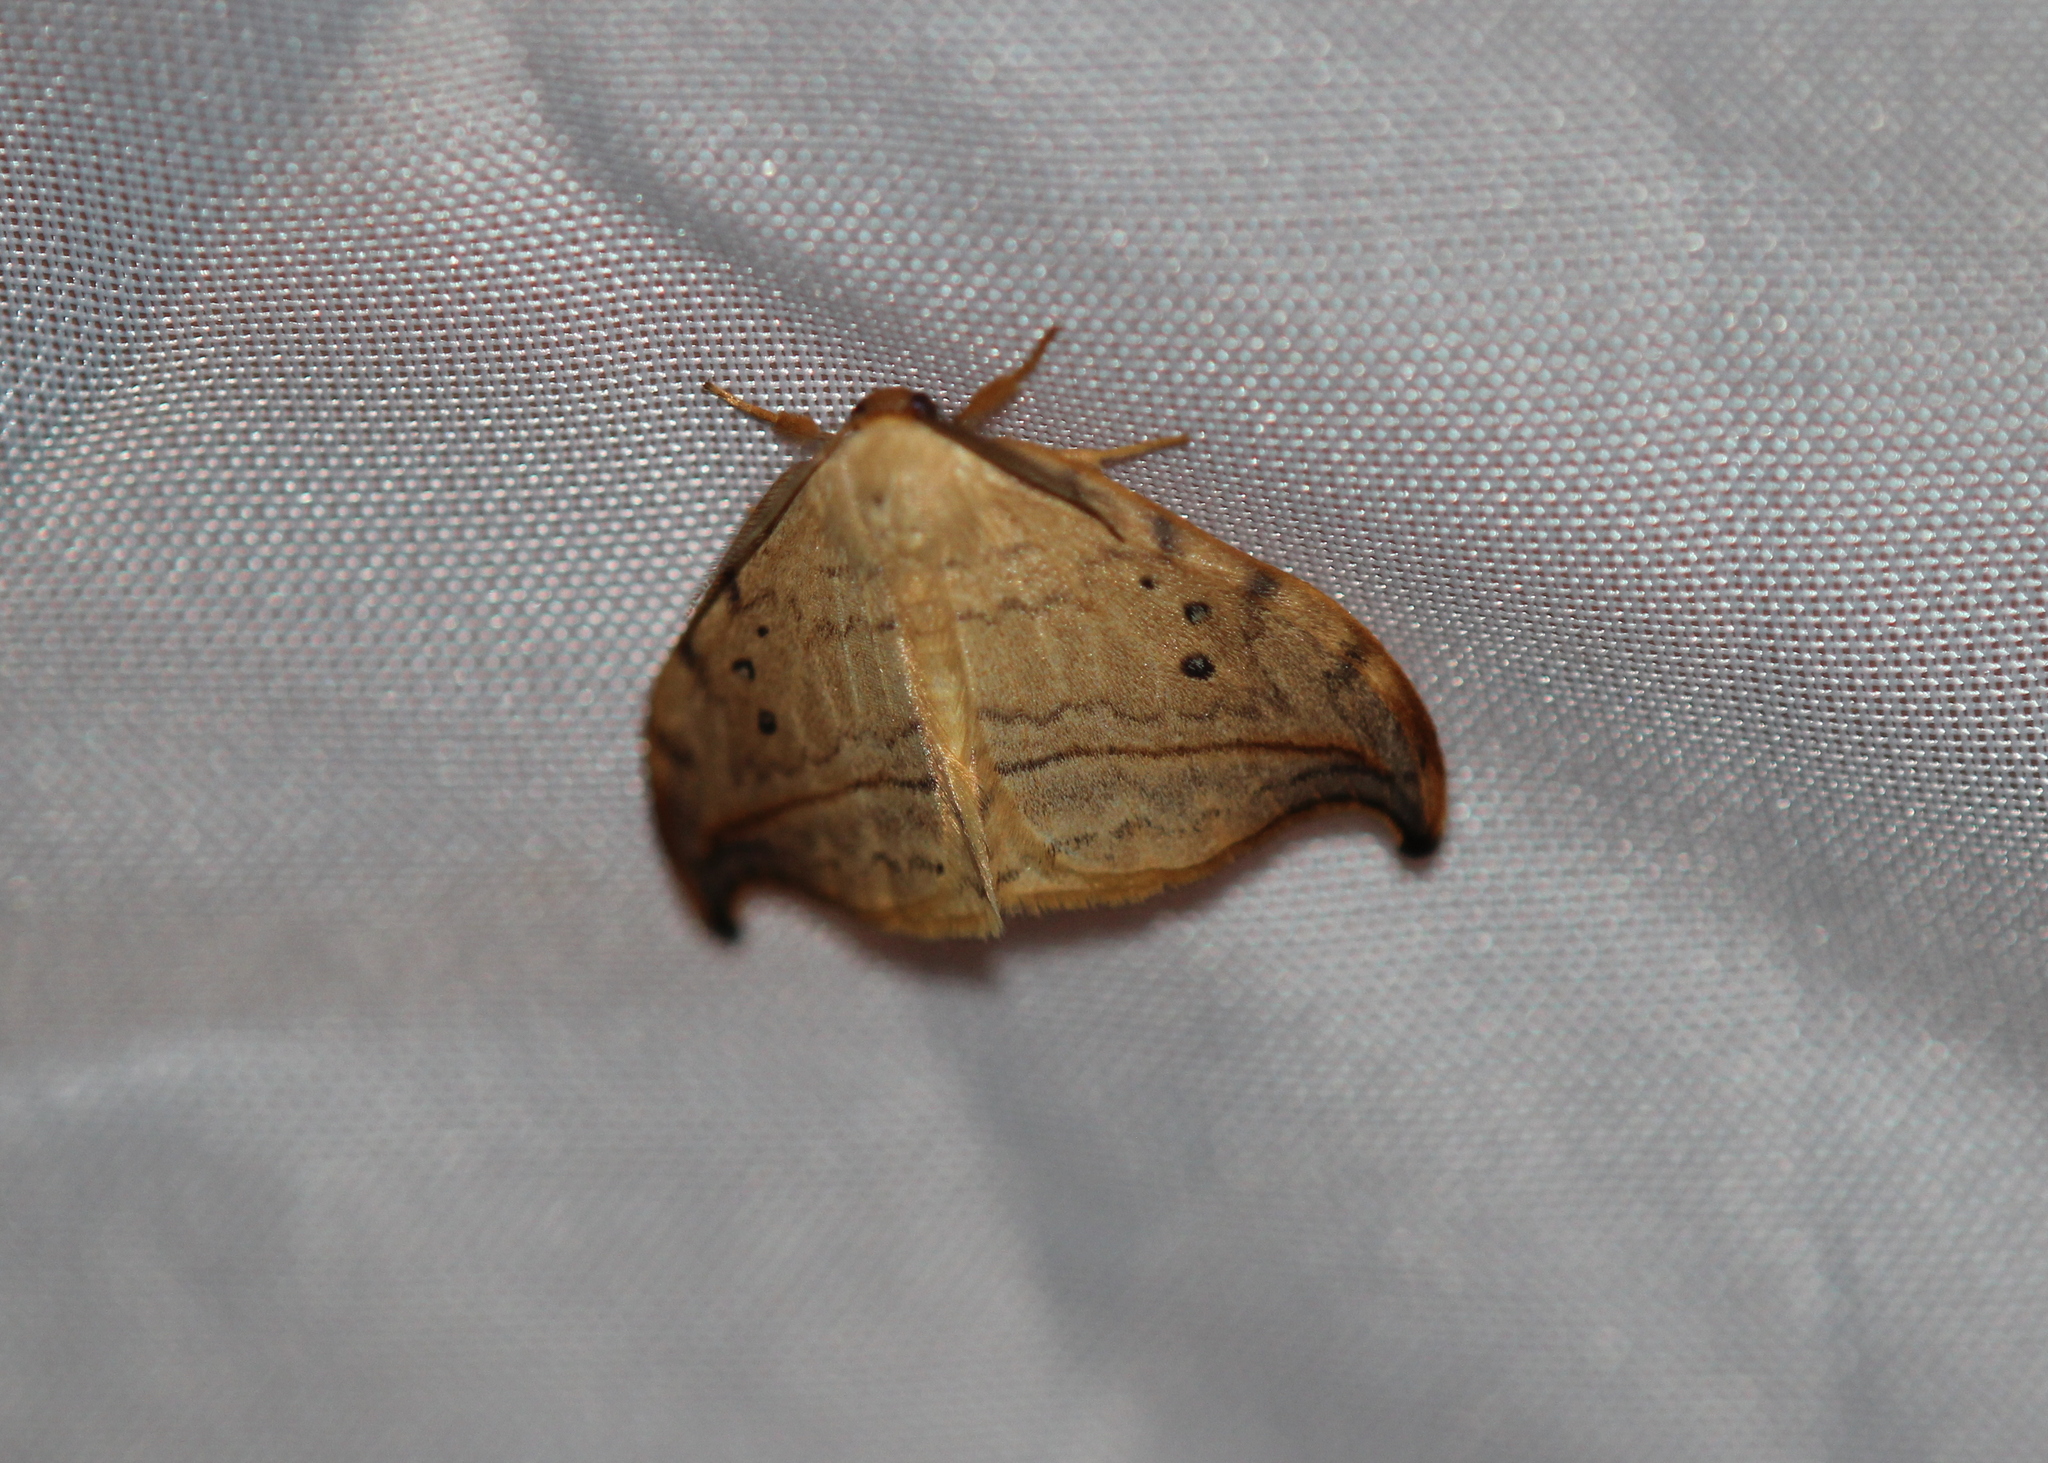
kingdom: Animalia
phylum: Arthropoda
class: Insecta
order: Lepidoptera
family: Drepanidae
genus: Drepana
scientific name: Drepana arcuata
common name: Arched hooktip moth
